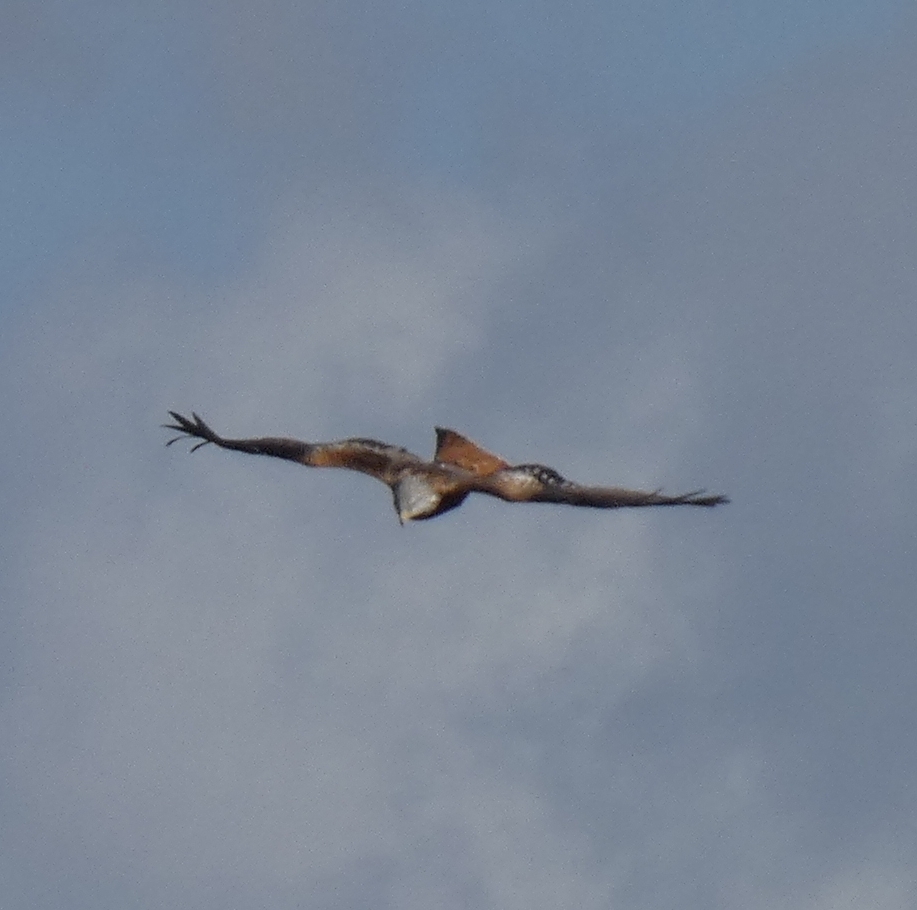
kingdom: Animalia
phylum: Chordata
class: Aves
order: Accipitriformes
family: Accipitridae
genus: Milvus
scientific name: Milvus milvus
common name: Red kite
